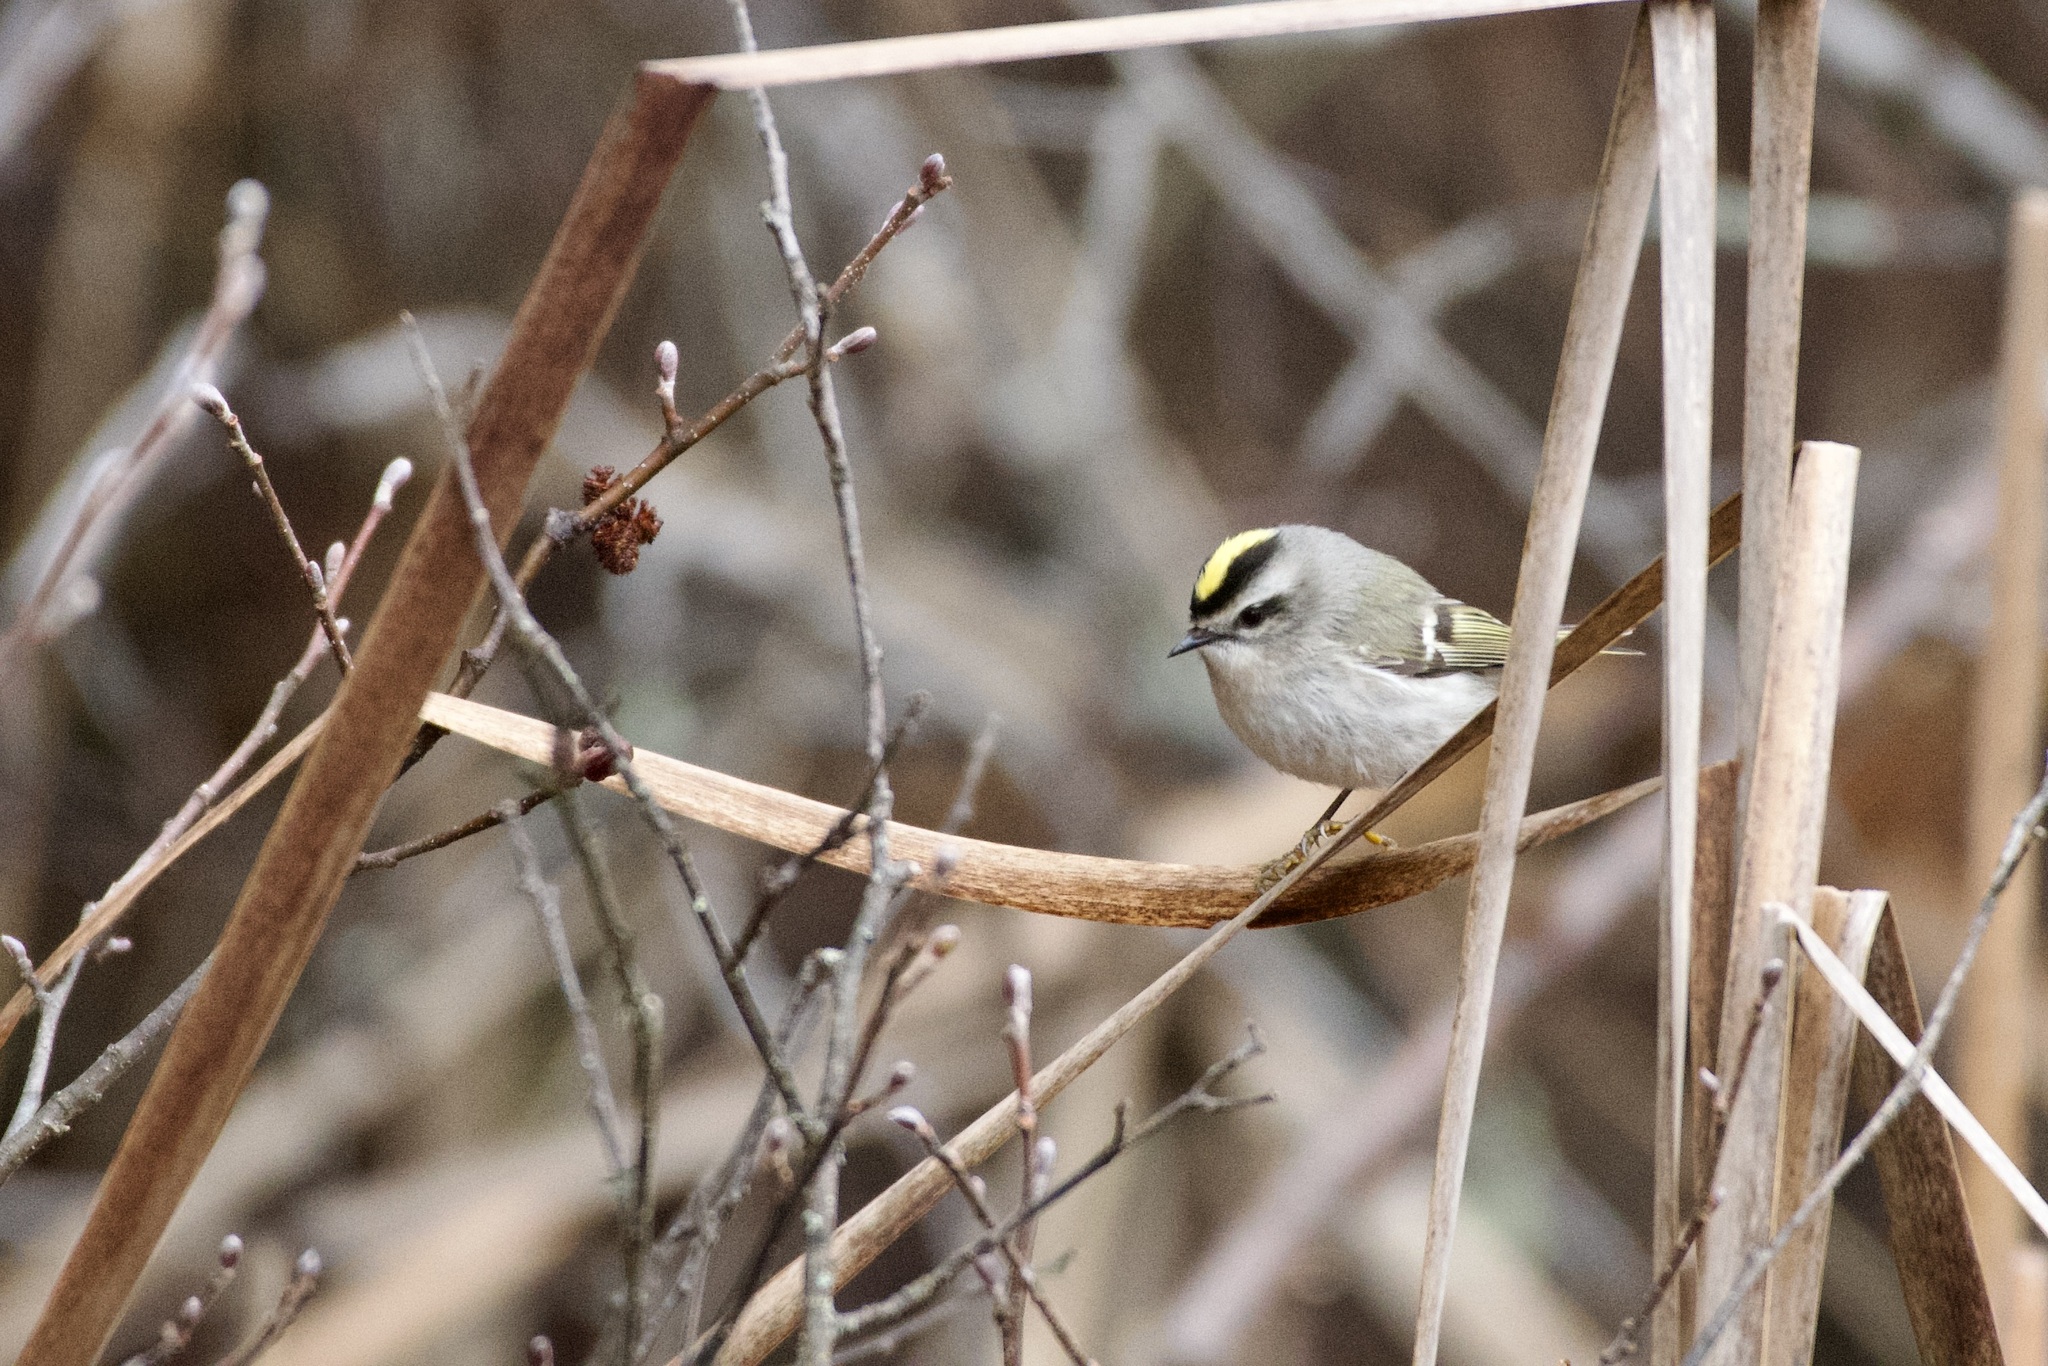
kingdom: Animalia
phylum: Chordata
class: Aves
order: Passeriformes
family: Regulidae
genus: Regulus
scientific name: Regulus satrapa
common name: Golden-crowned kinglet
